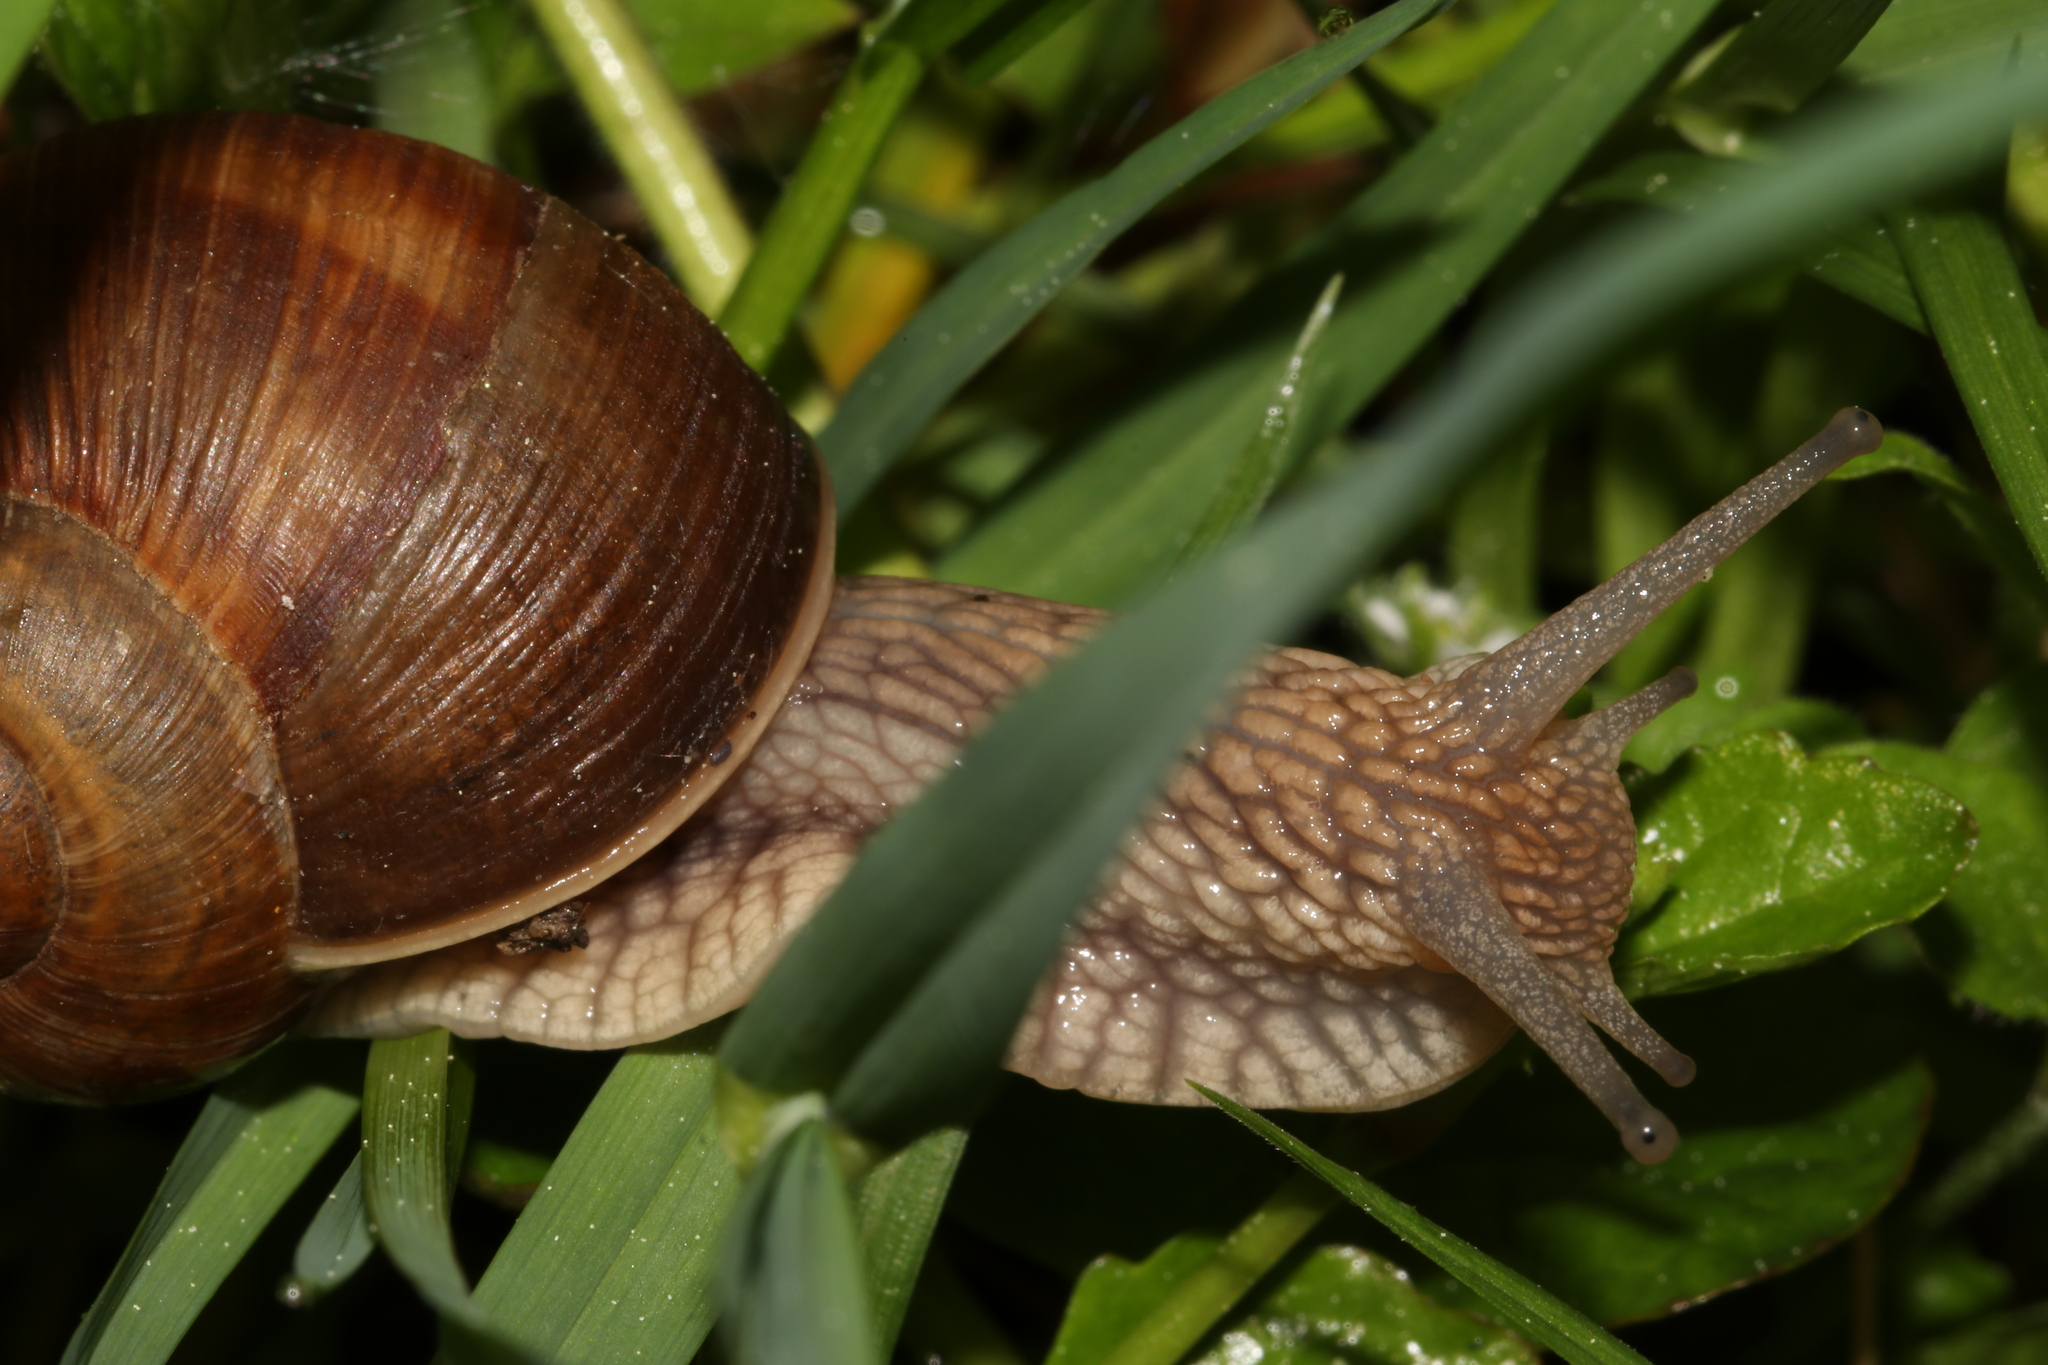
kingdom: Animalia
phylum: Mollusca
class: Gastropoda
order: Stylommatophora
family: Helicidae
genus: Helix
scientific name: Helix pomatia
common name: Roman snail
